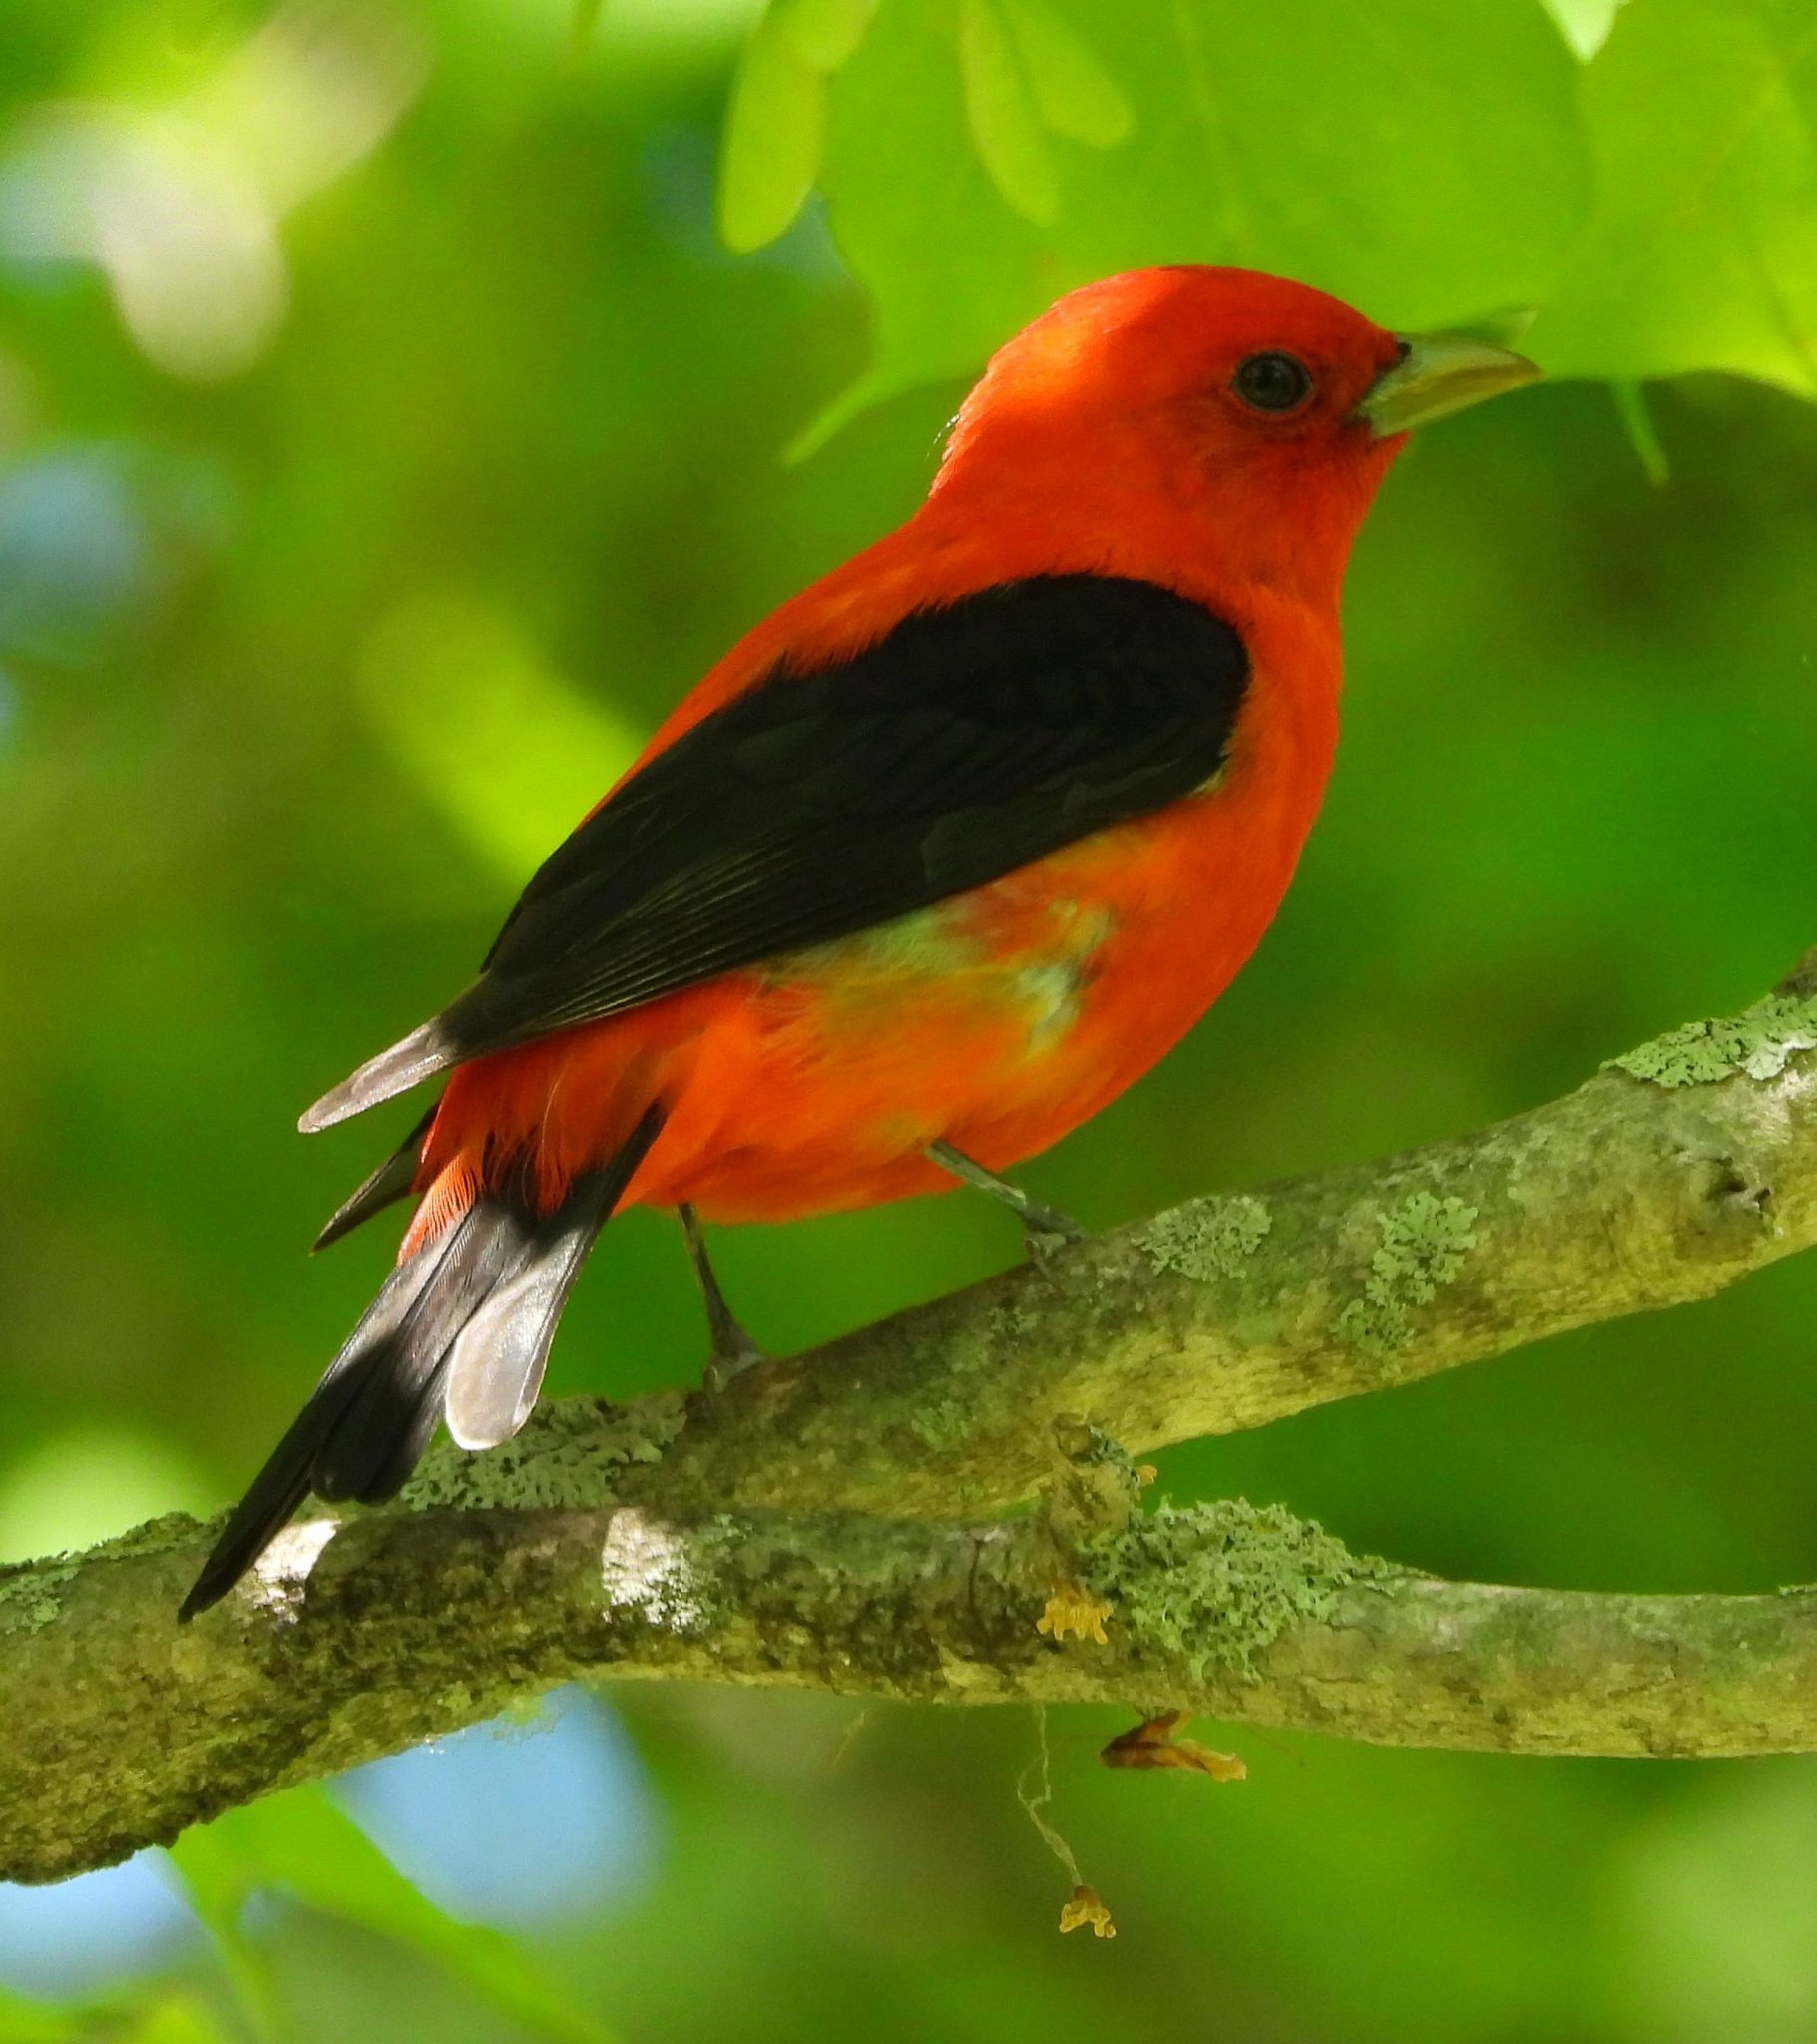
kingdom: Animalia
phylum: Chordata
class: Aves
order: Passeriformes
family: Cardinalidae
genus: Piranga
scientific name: Piranga olivacea
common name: Scarlet tanager
